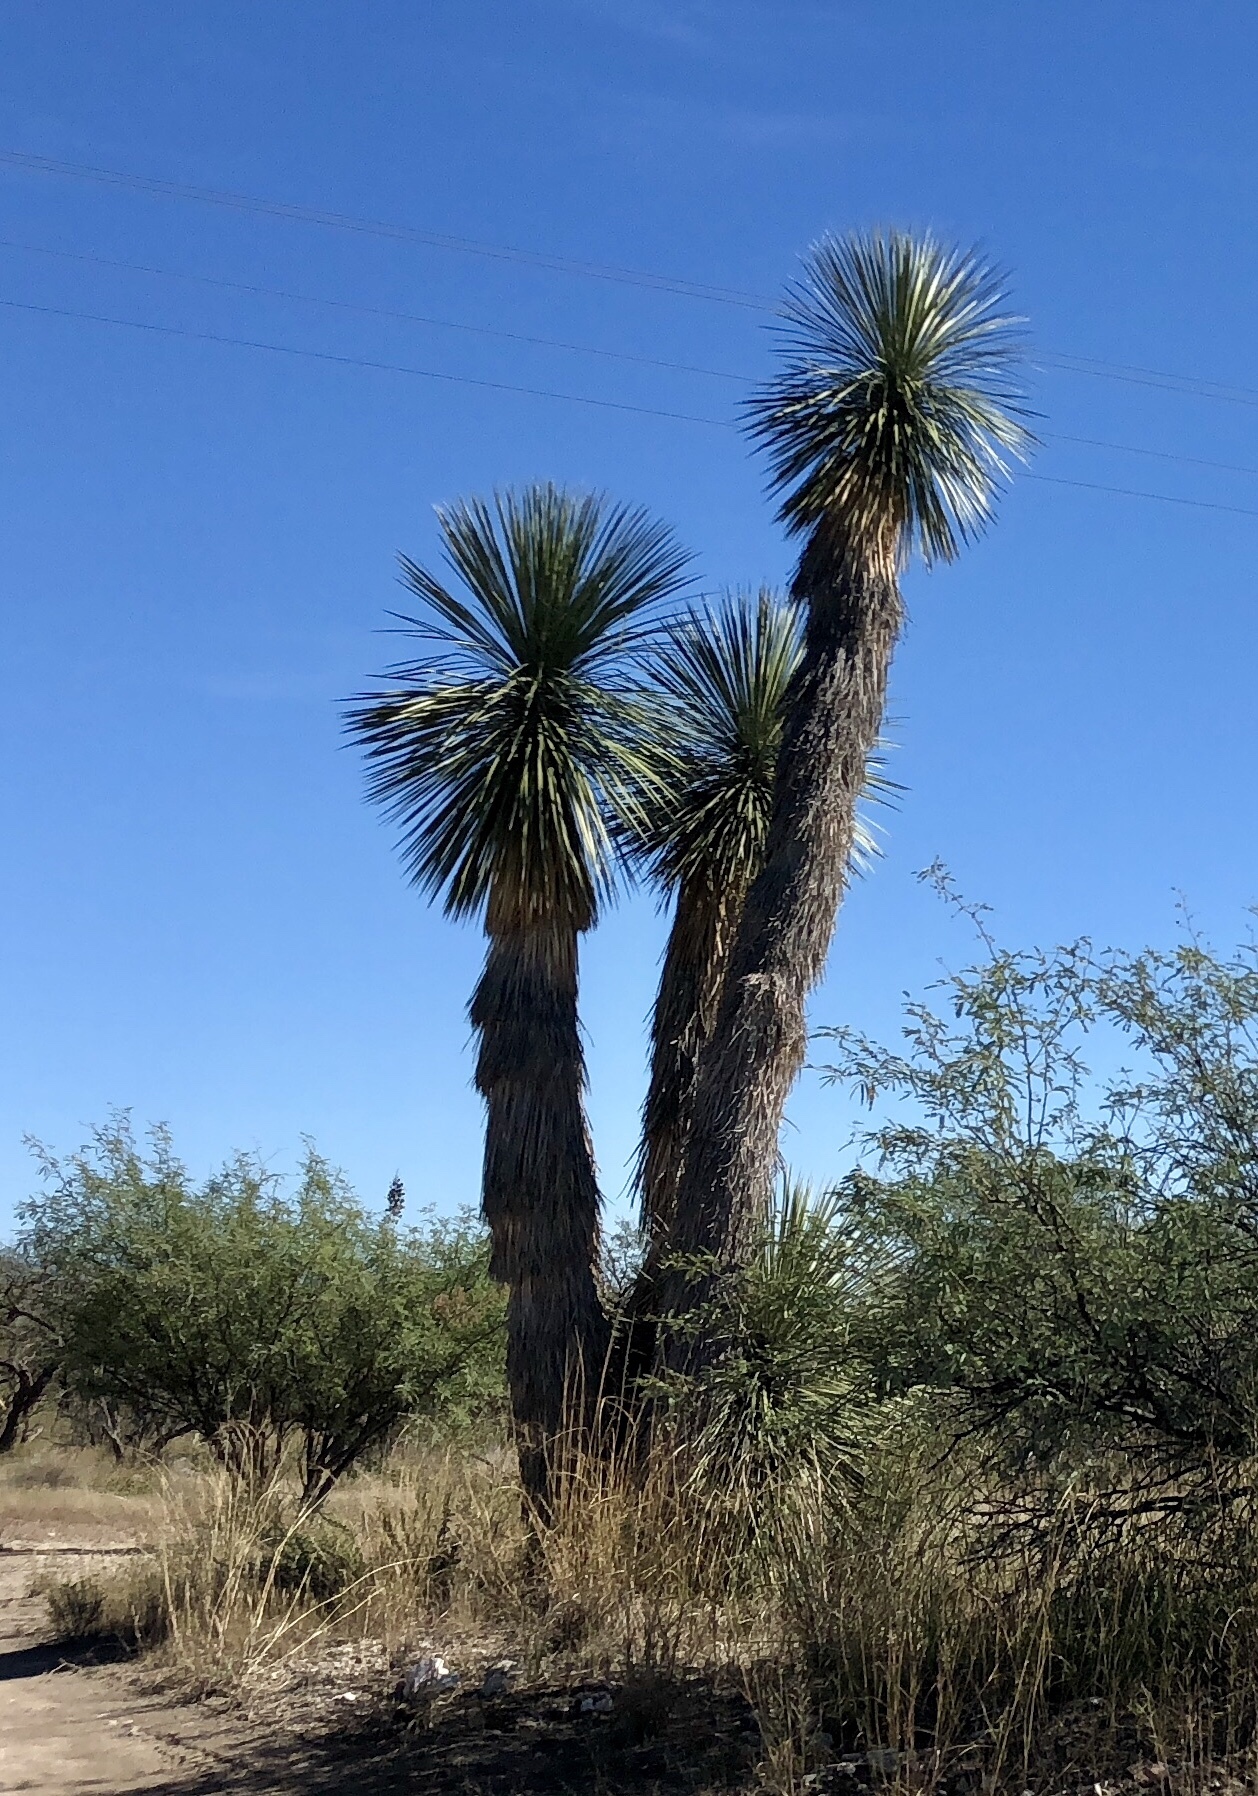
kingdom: Plantae
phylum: Tracheophyta
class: Liliopsida
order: Asparagales
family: Asparagaceae
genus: Yucca
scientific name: Yucca elata
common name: Palmella
